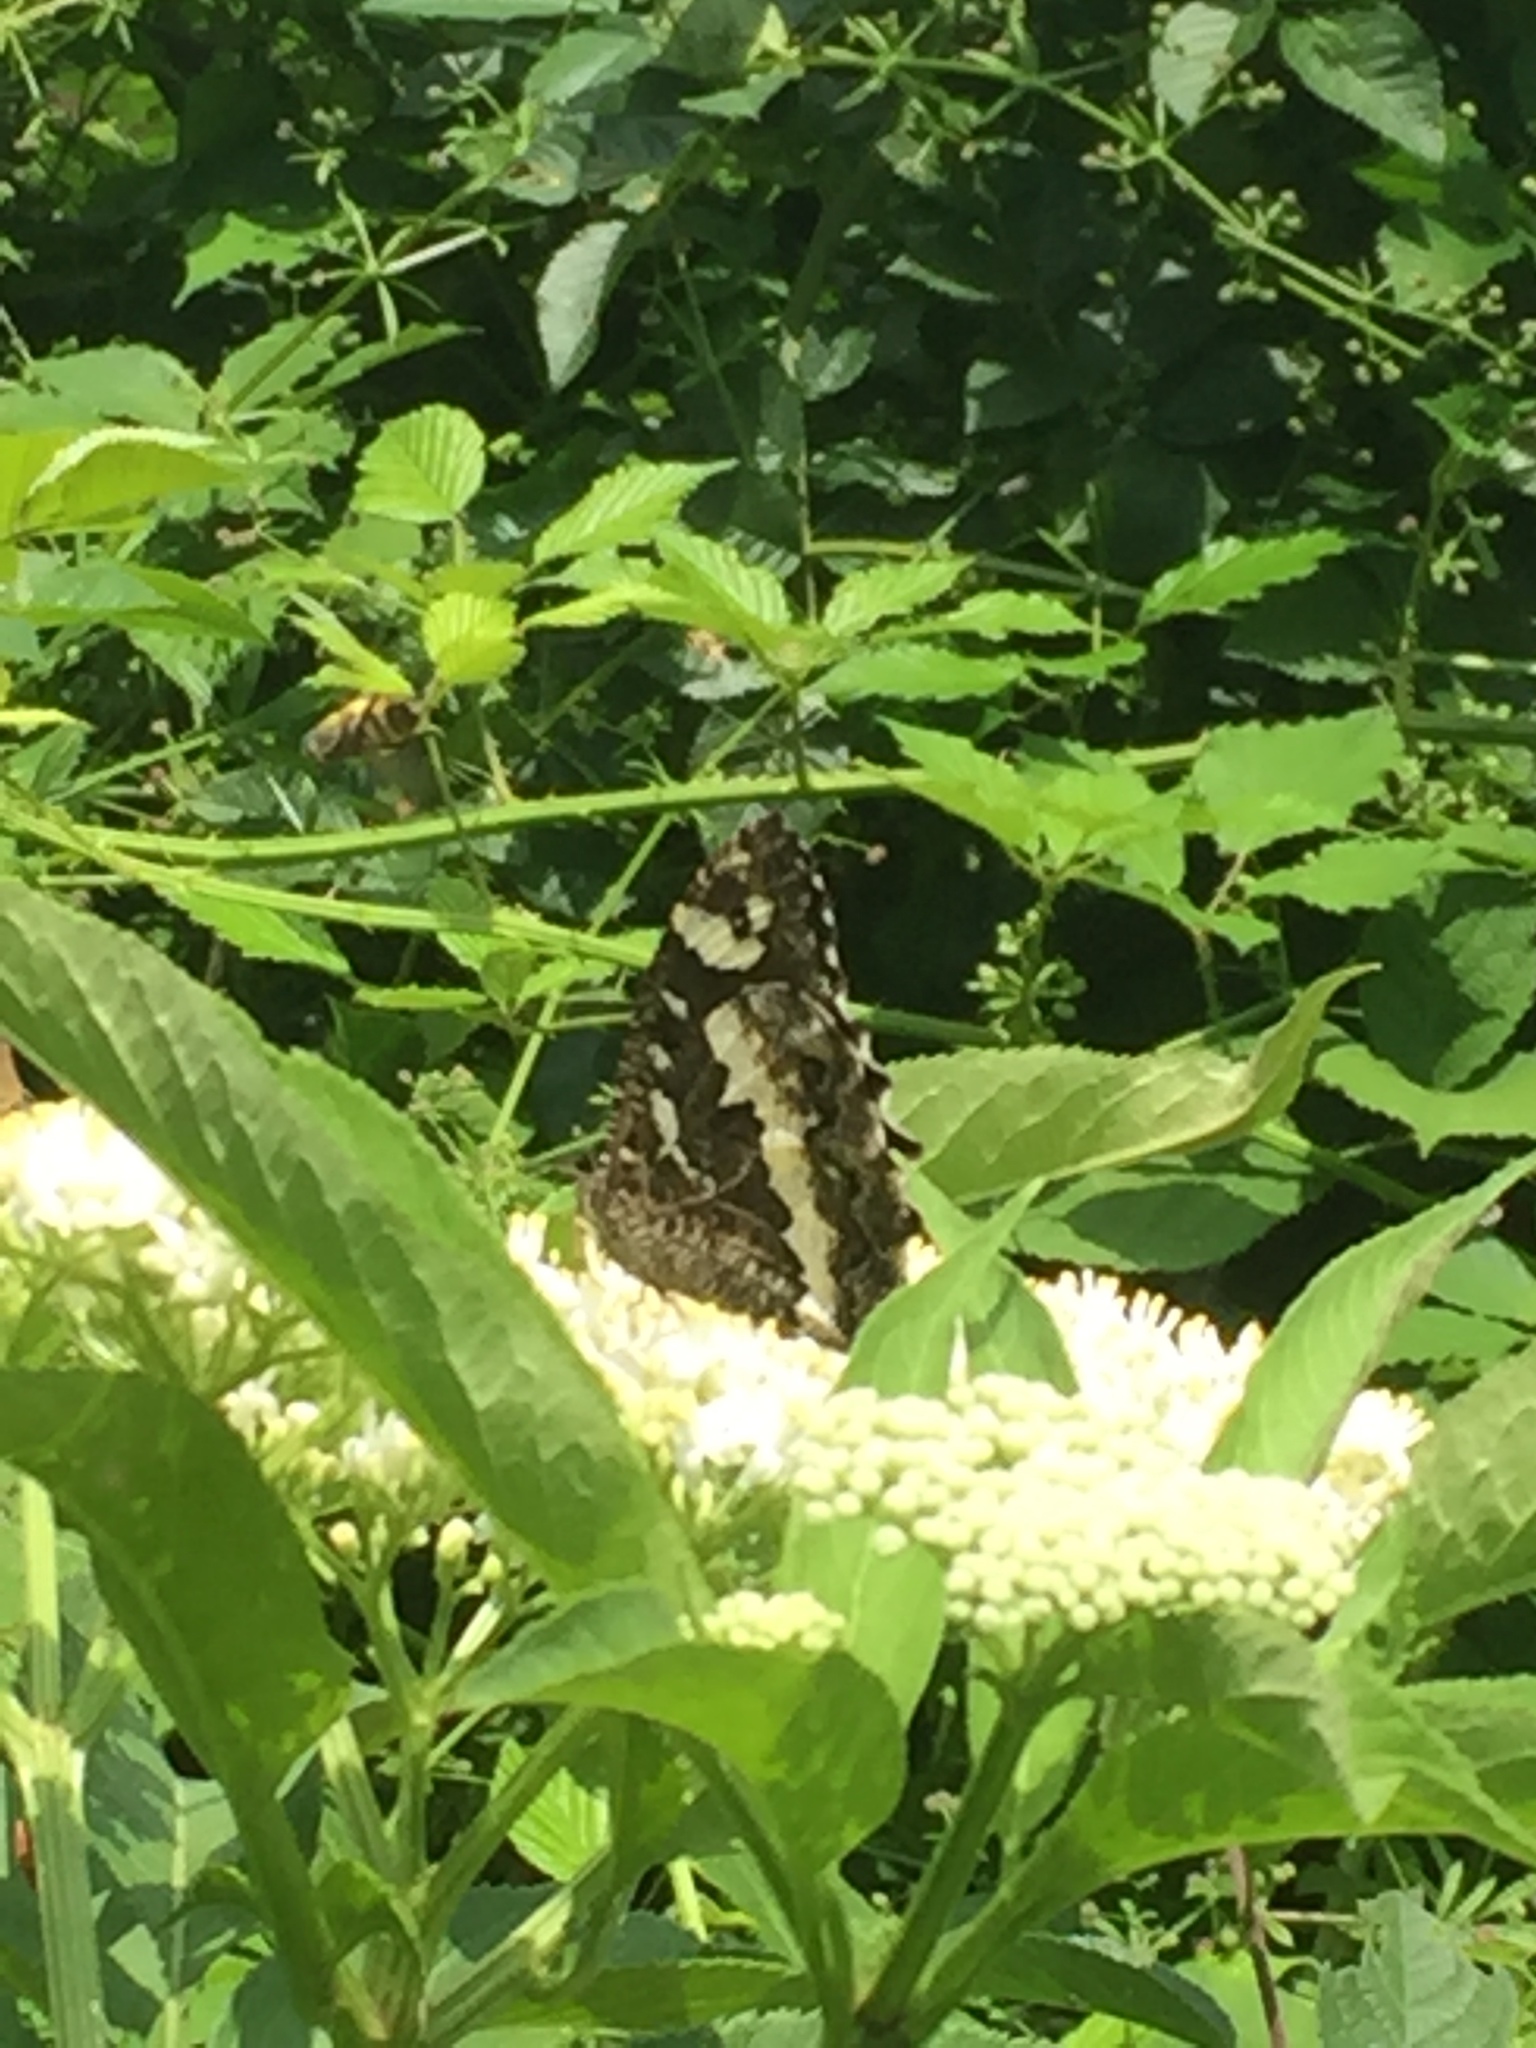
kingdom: Animalia
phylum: Arthropoda
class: Insecta
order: Lepidoptera
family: Lycaenidae
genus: Loweia
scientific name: Loweia tityrus
